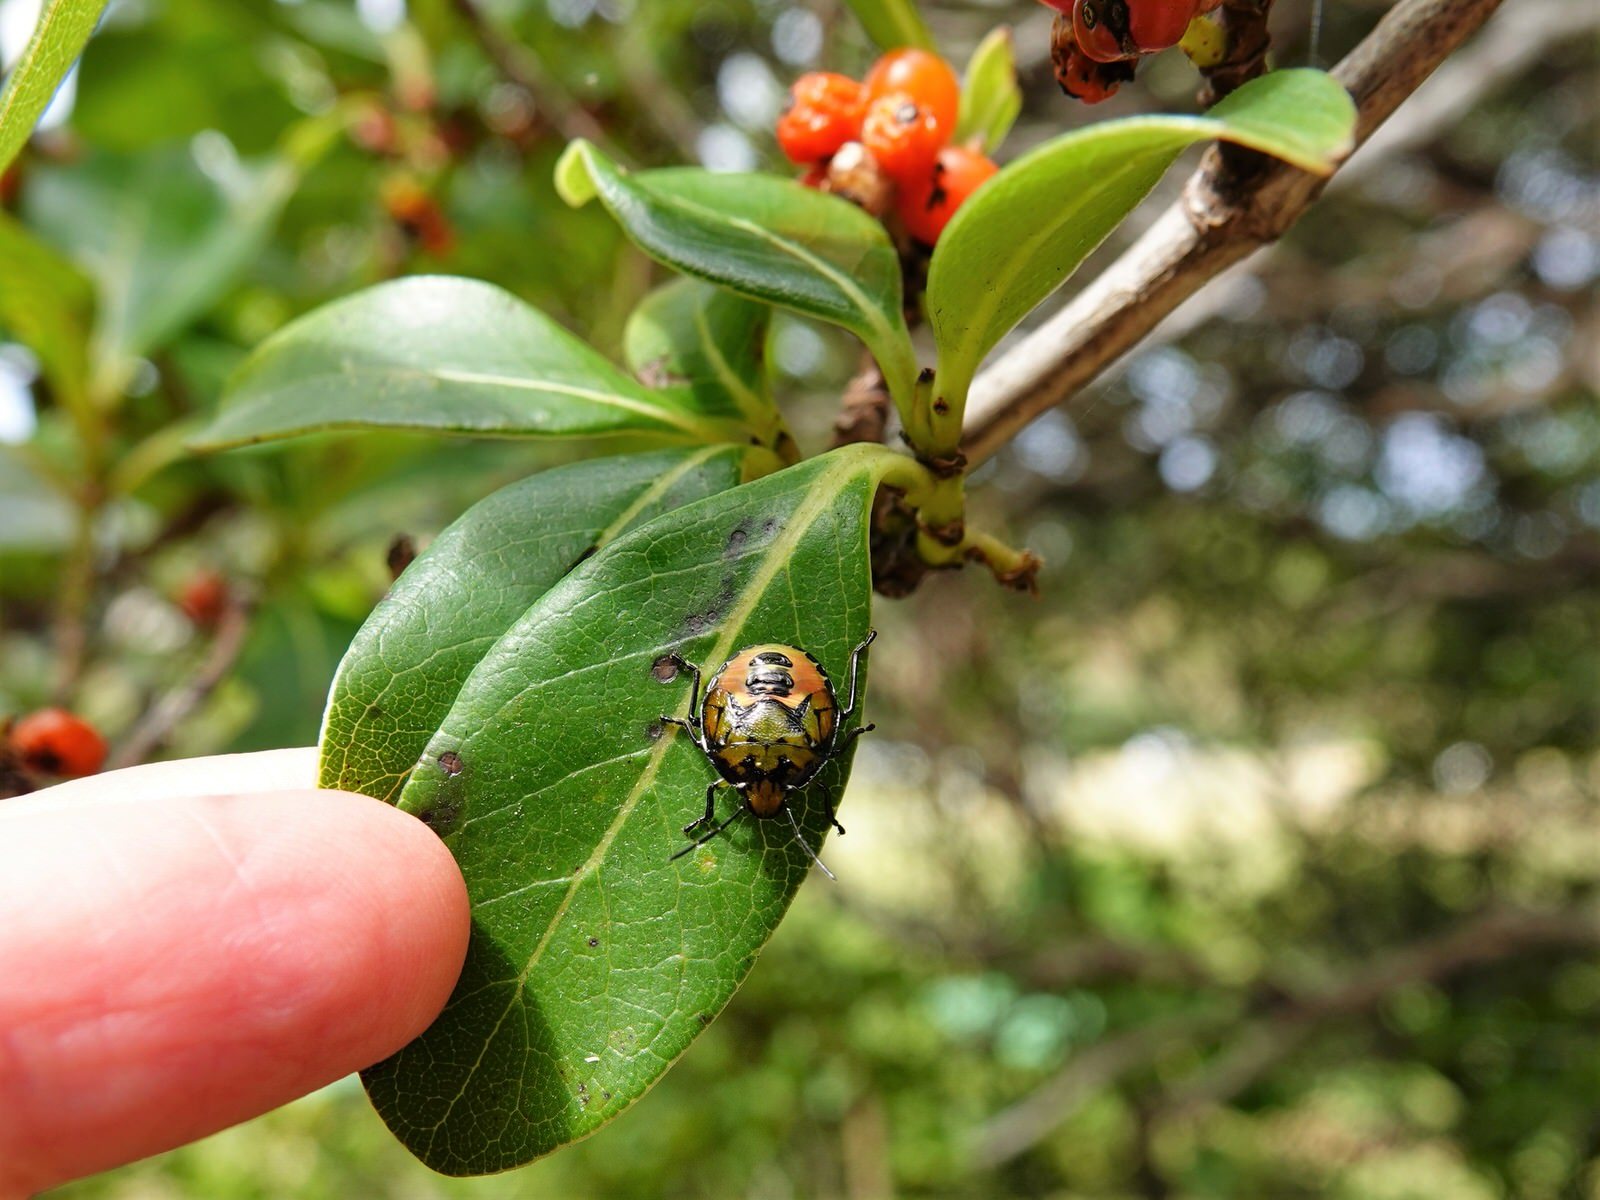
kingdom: Animalia
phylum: Arthropoda
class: Insecta
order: Hemiptera
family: Pentatomidae
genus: Glaucias
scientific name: Glaucias amyota
